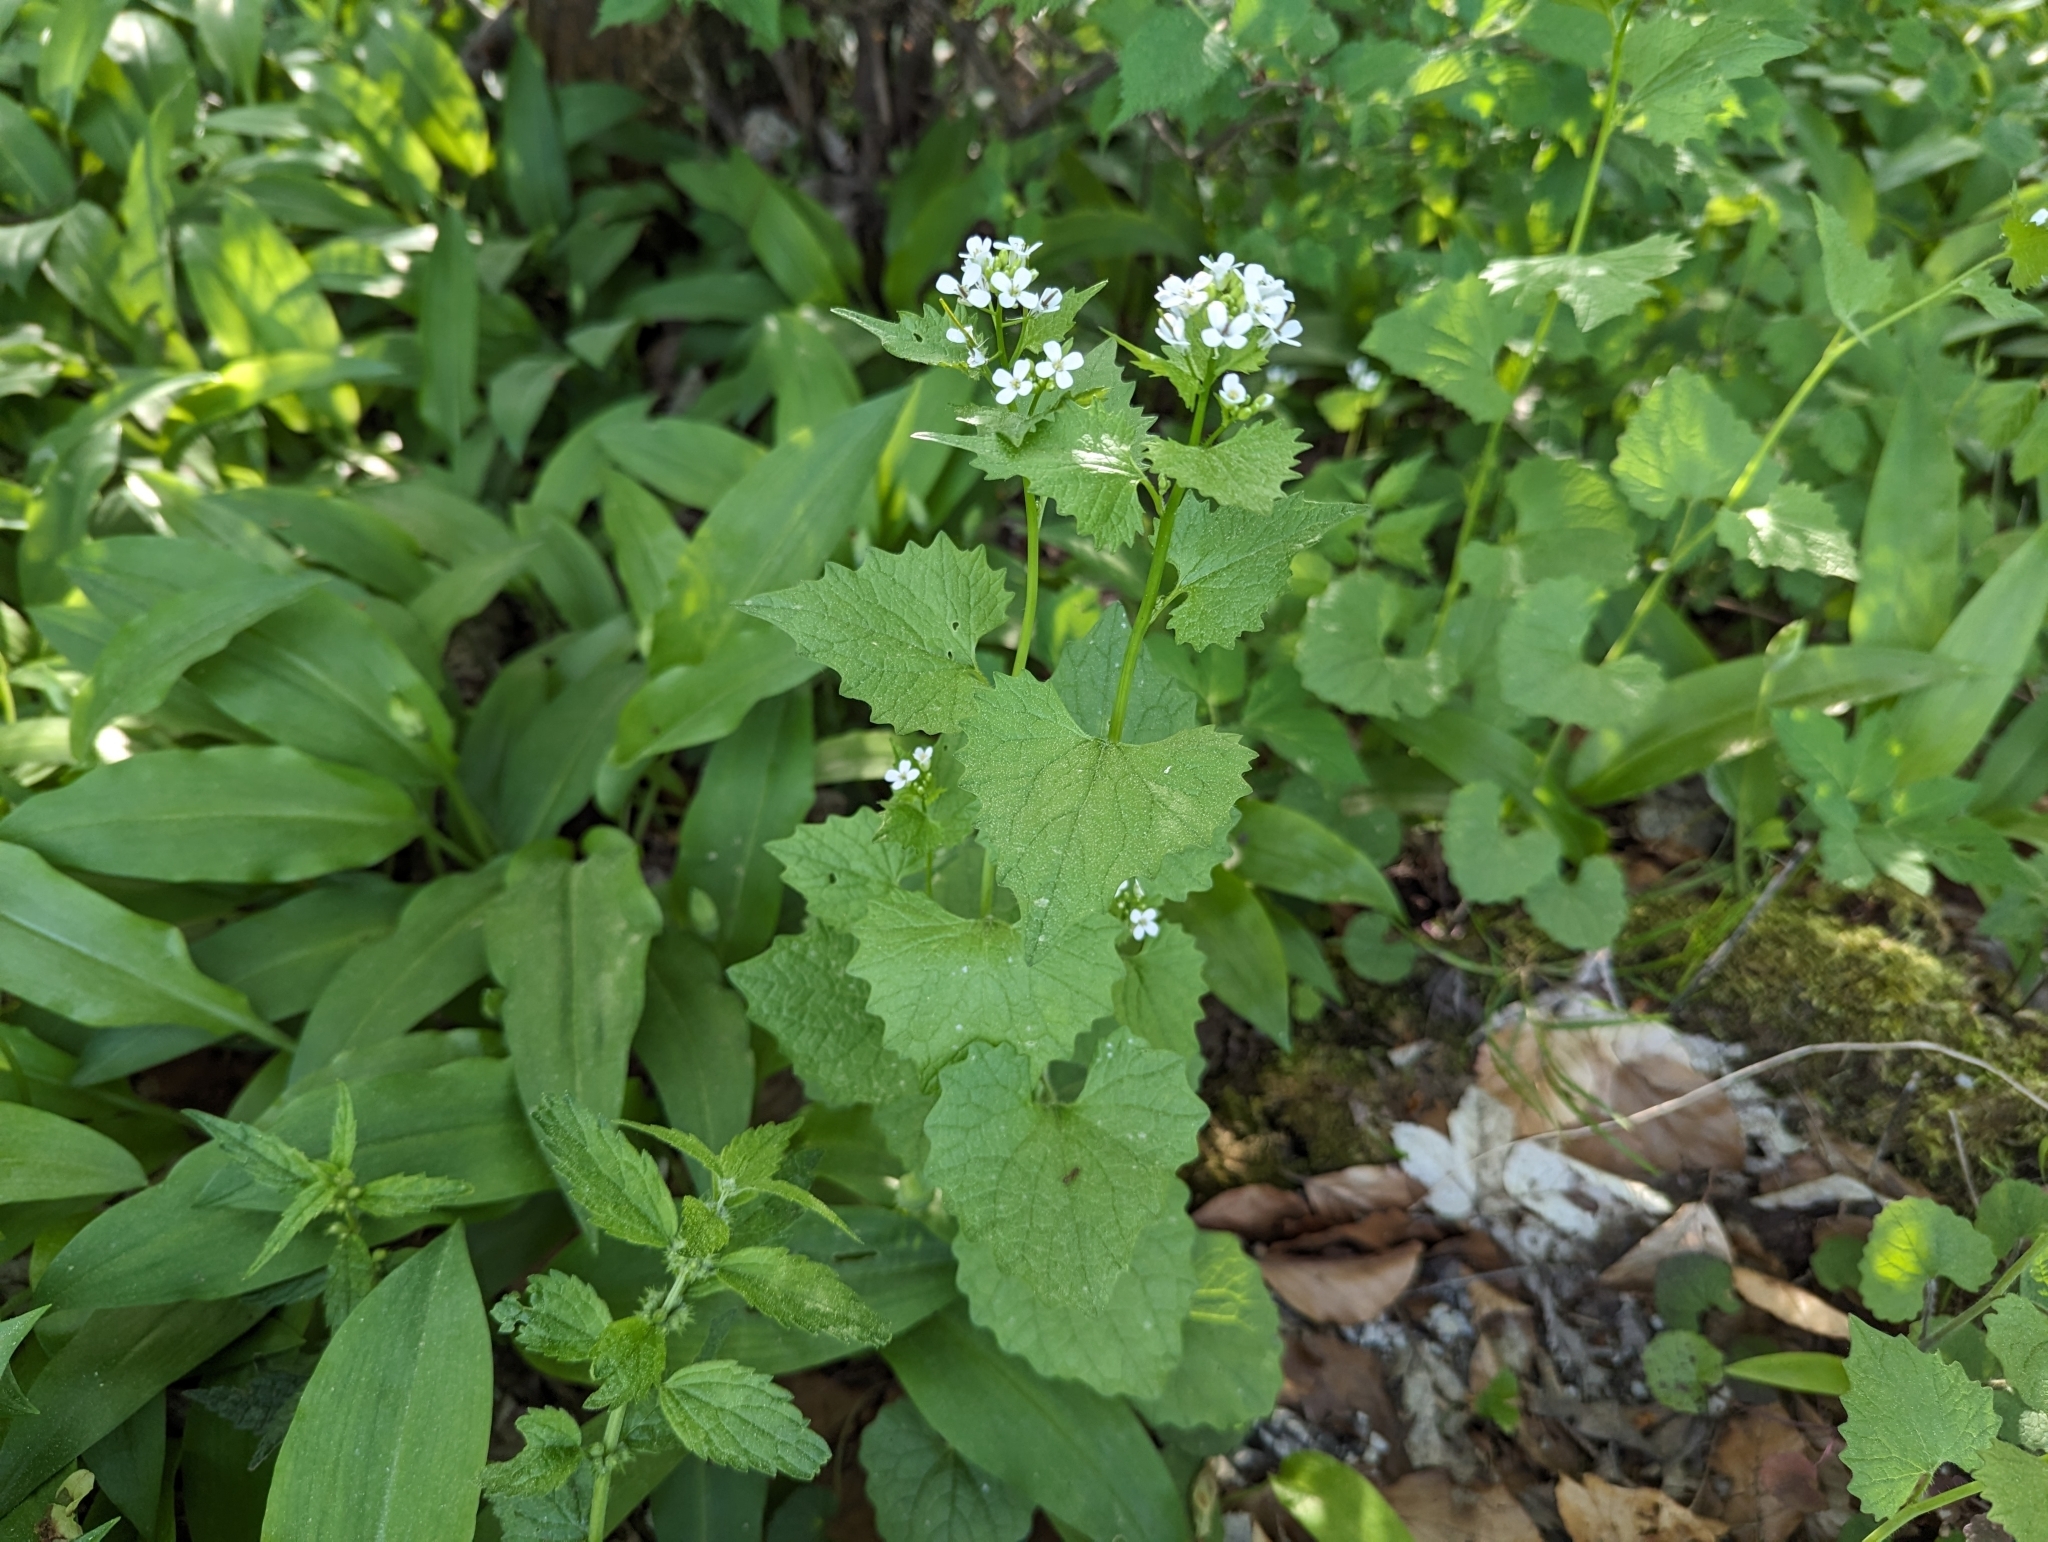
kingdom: Plantae
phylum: Tracheophyta
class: Magnoliopsida
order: Brassicales
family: Brassicaceae
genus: Alliaria
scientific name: Alliaria petiolata
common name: Garlic mustard
